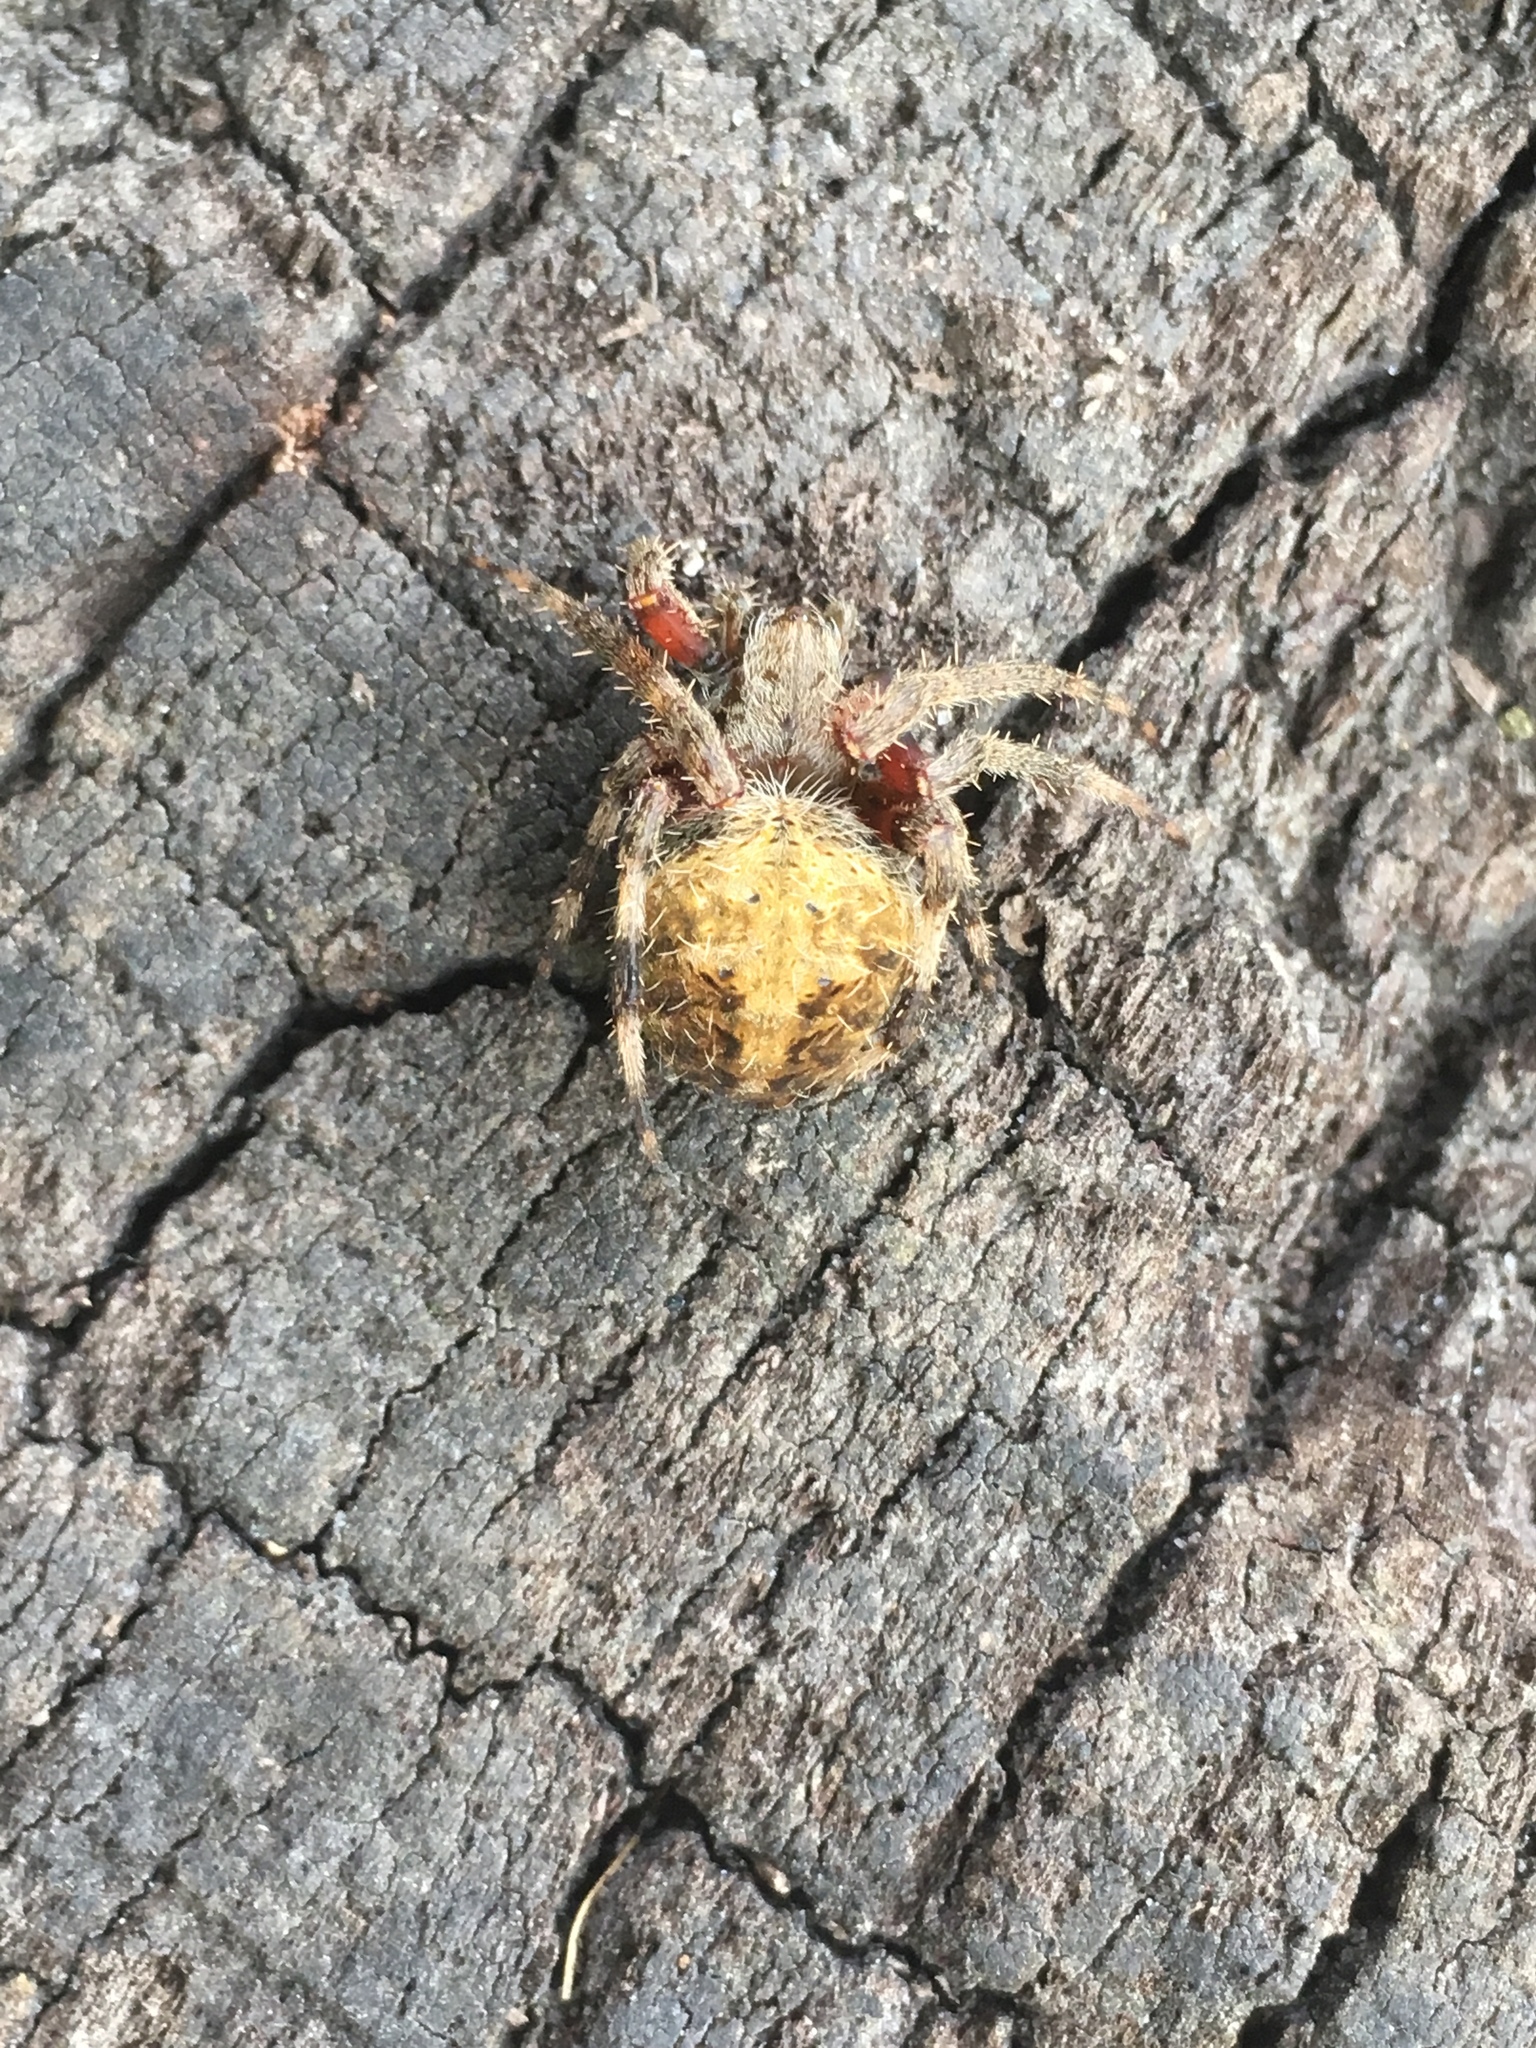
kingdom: Animalia
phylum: Arthropoda
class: Arachnida
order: Araneae
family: Araneidae
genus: Neoscona
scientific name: Neoscona crucifera
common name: Spotted orbweaver
